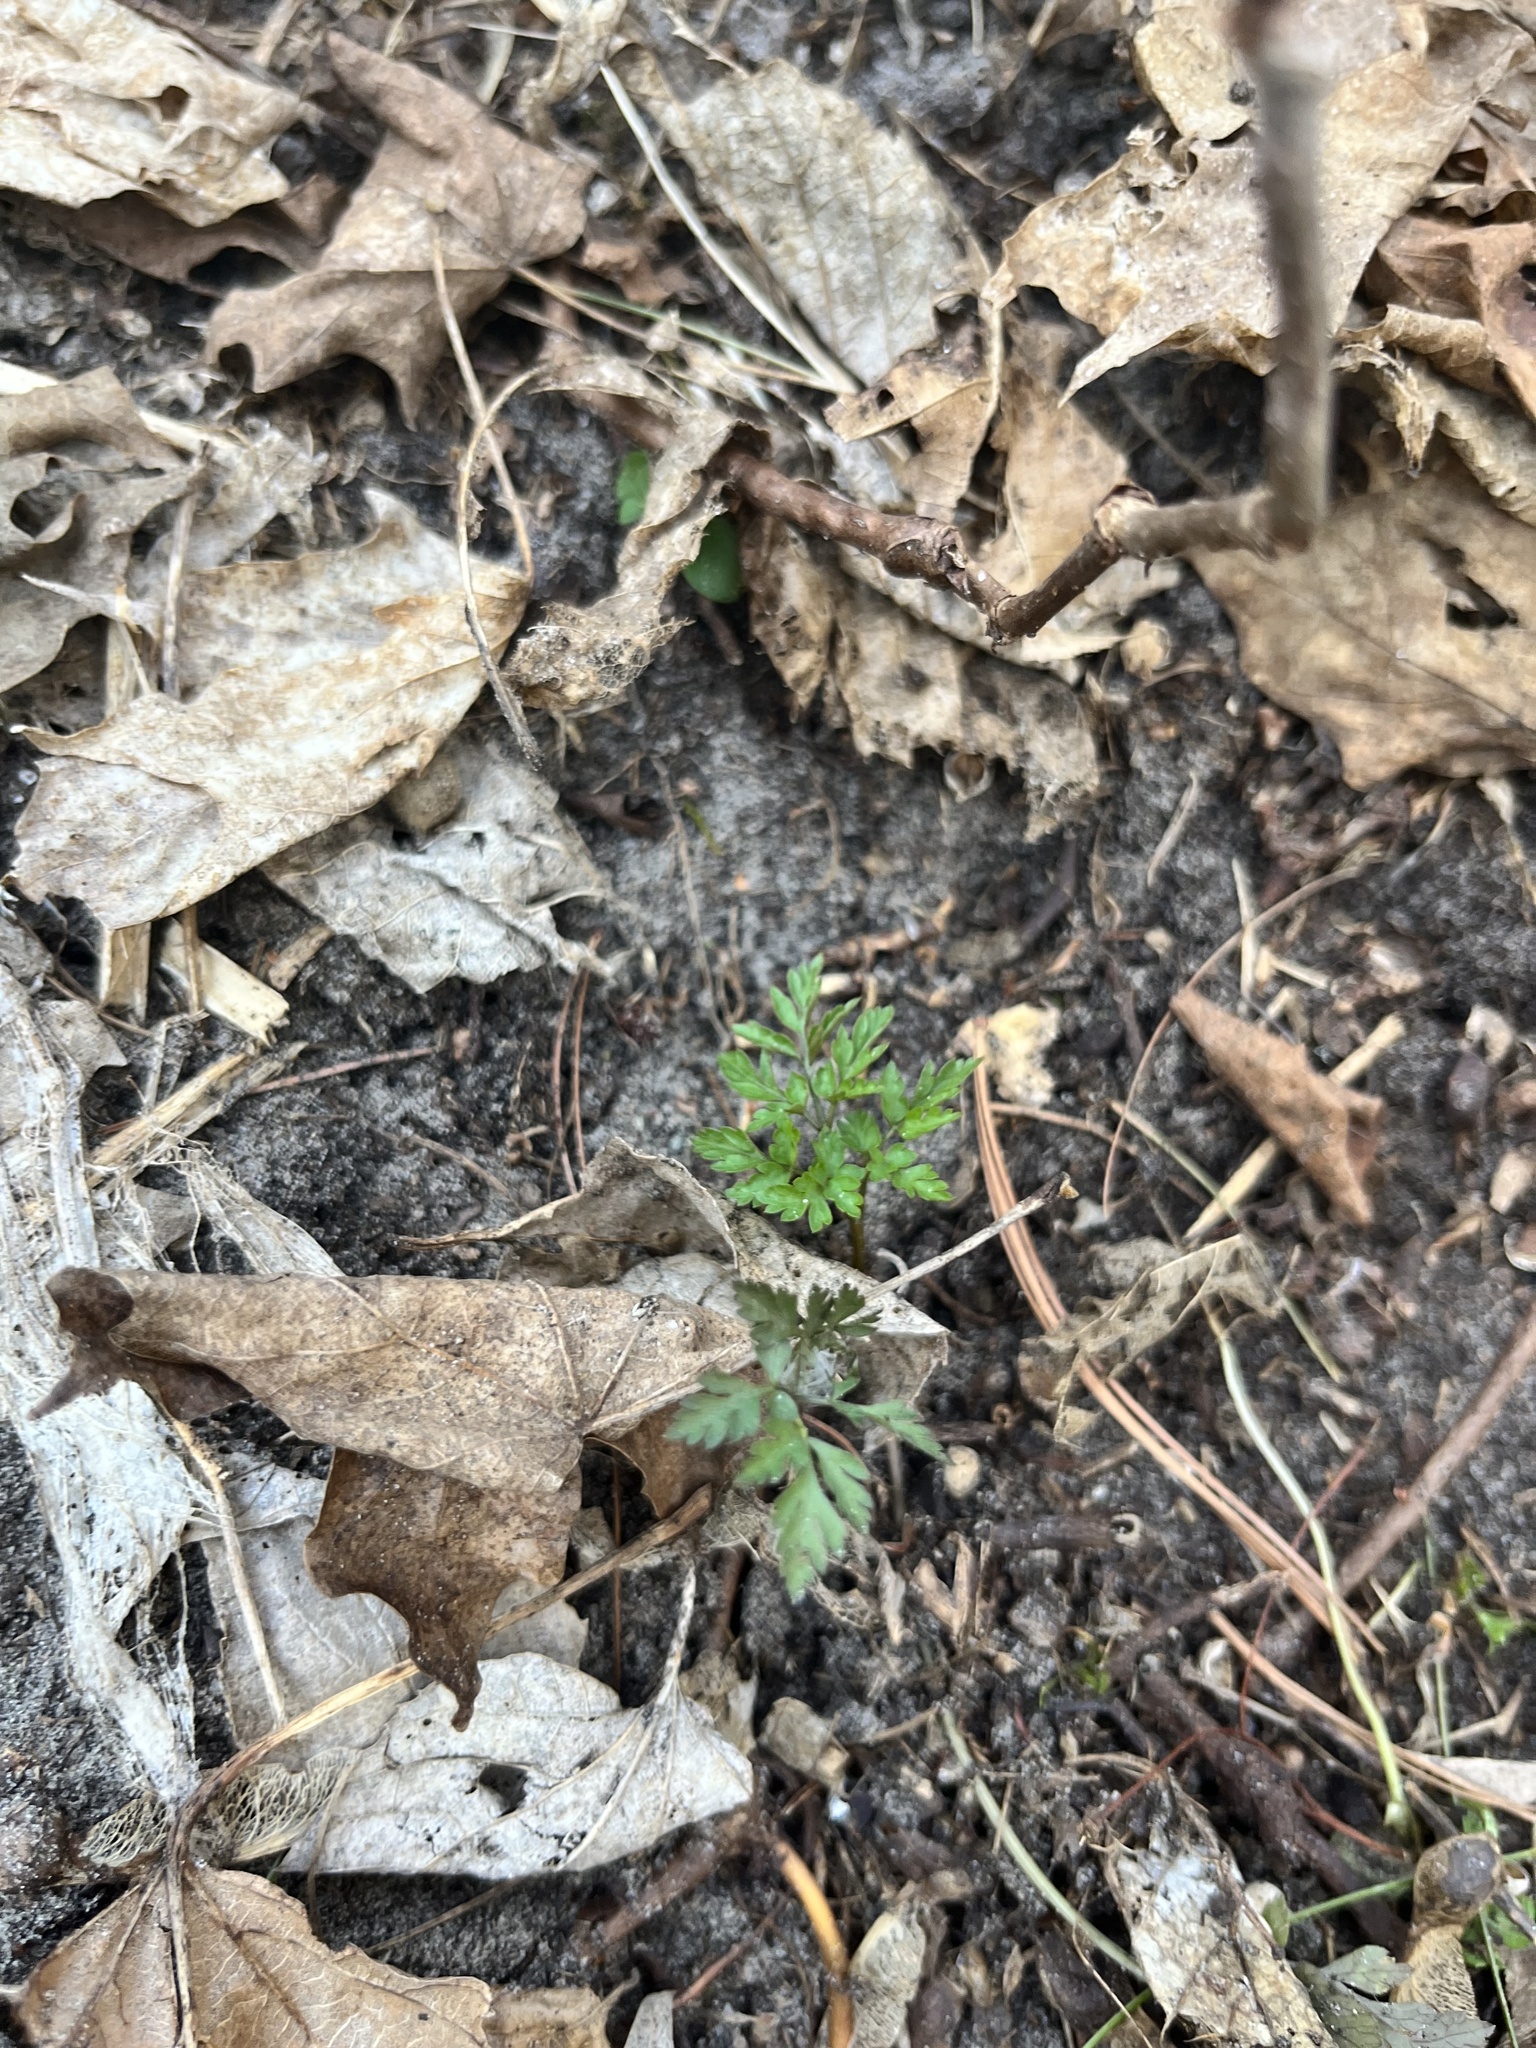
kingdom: Plantae
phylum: Tracheophyta
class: Magnoliopsida
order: Ranunculales
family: Papaveraceae
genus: Dicentra
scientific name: Dicentra cucullaria
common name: Dutchman's breeches
